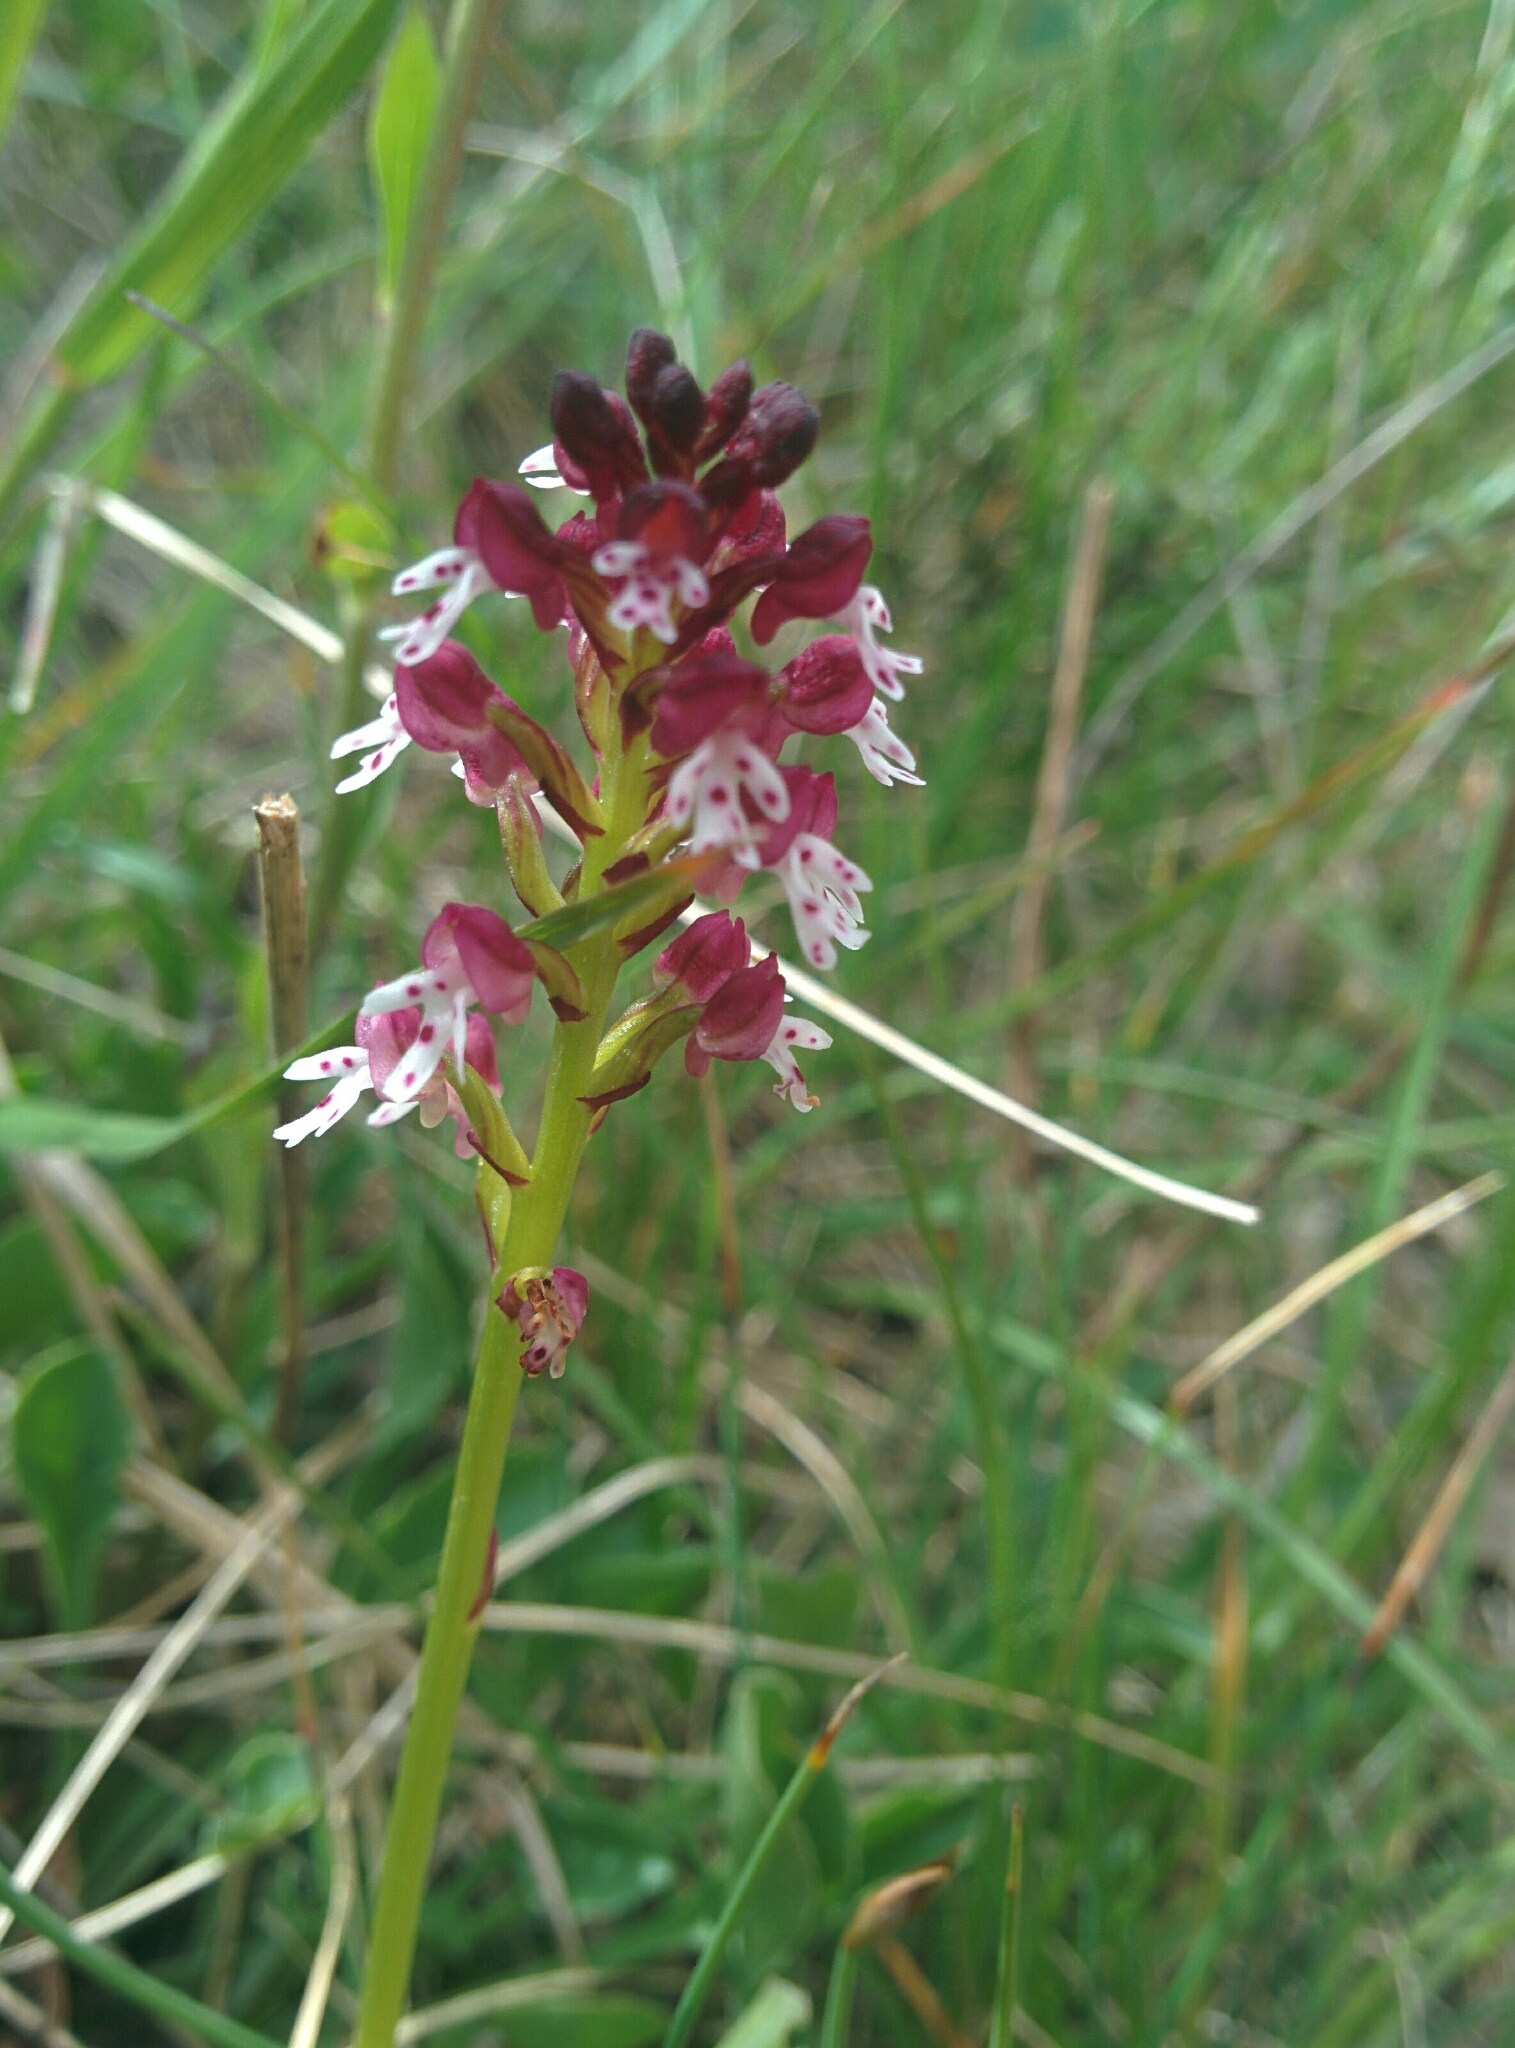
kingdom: Plantae
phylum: Tracheophyta
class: Liliopsida
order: Asparagales
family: Orchidaceae
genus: Neotinea
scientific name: Neotinea ustulata
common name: Burnt orchid
